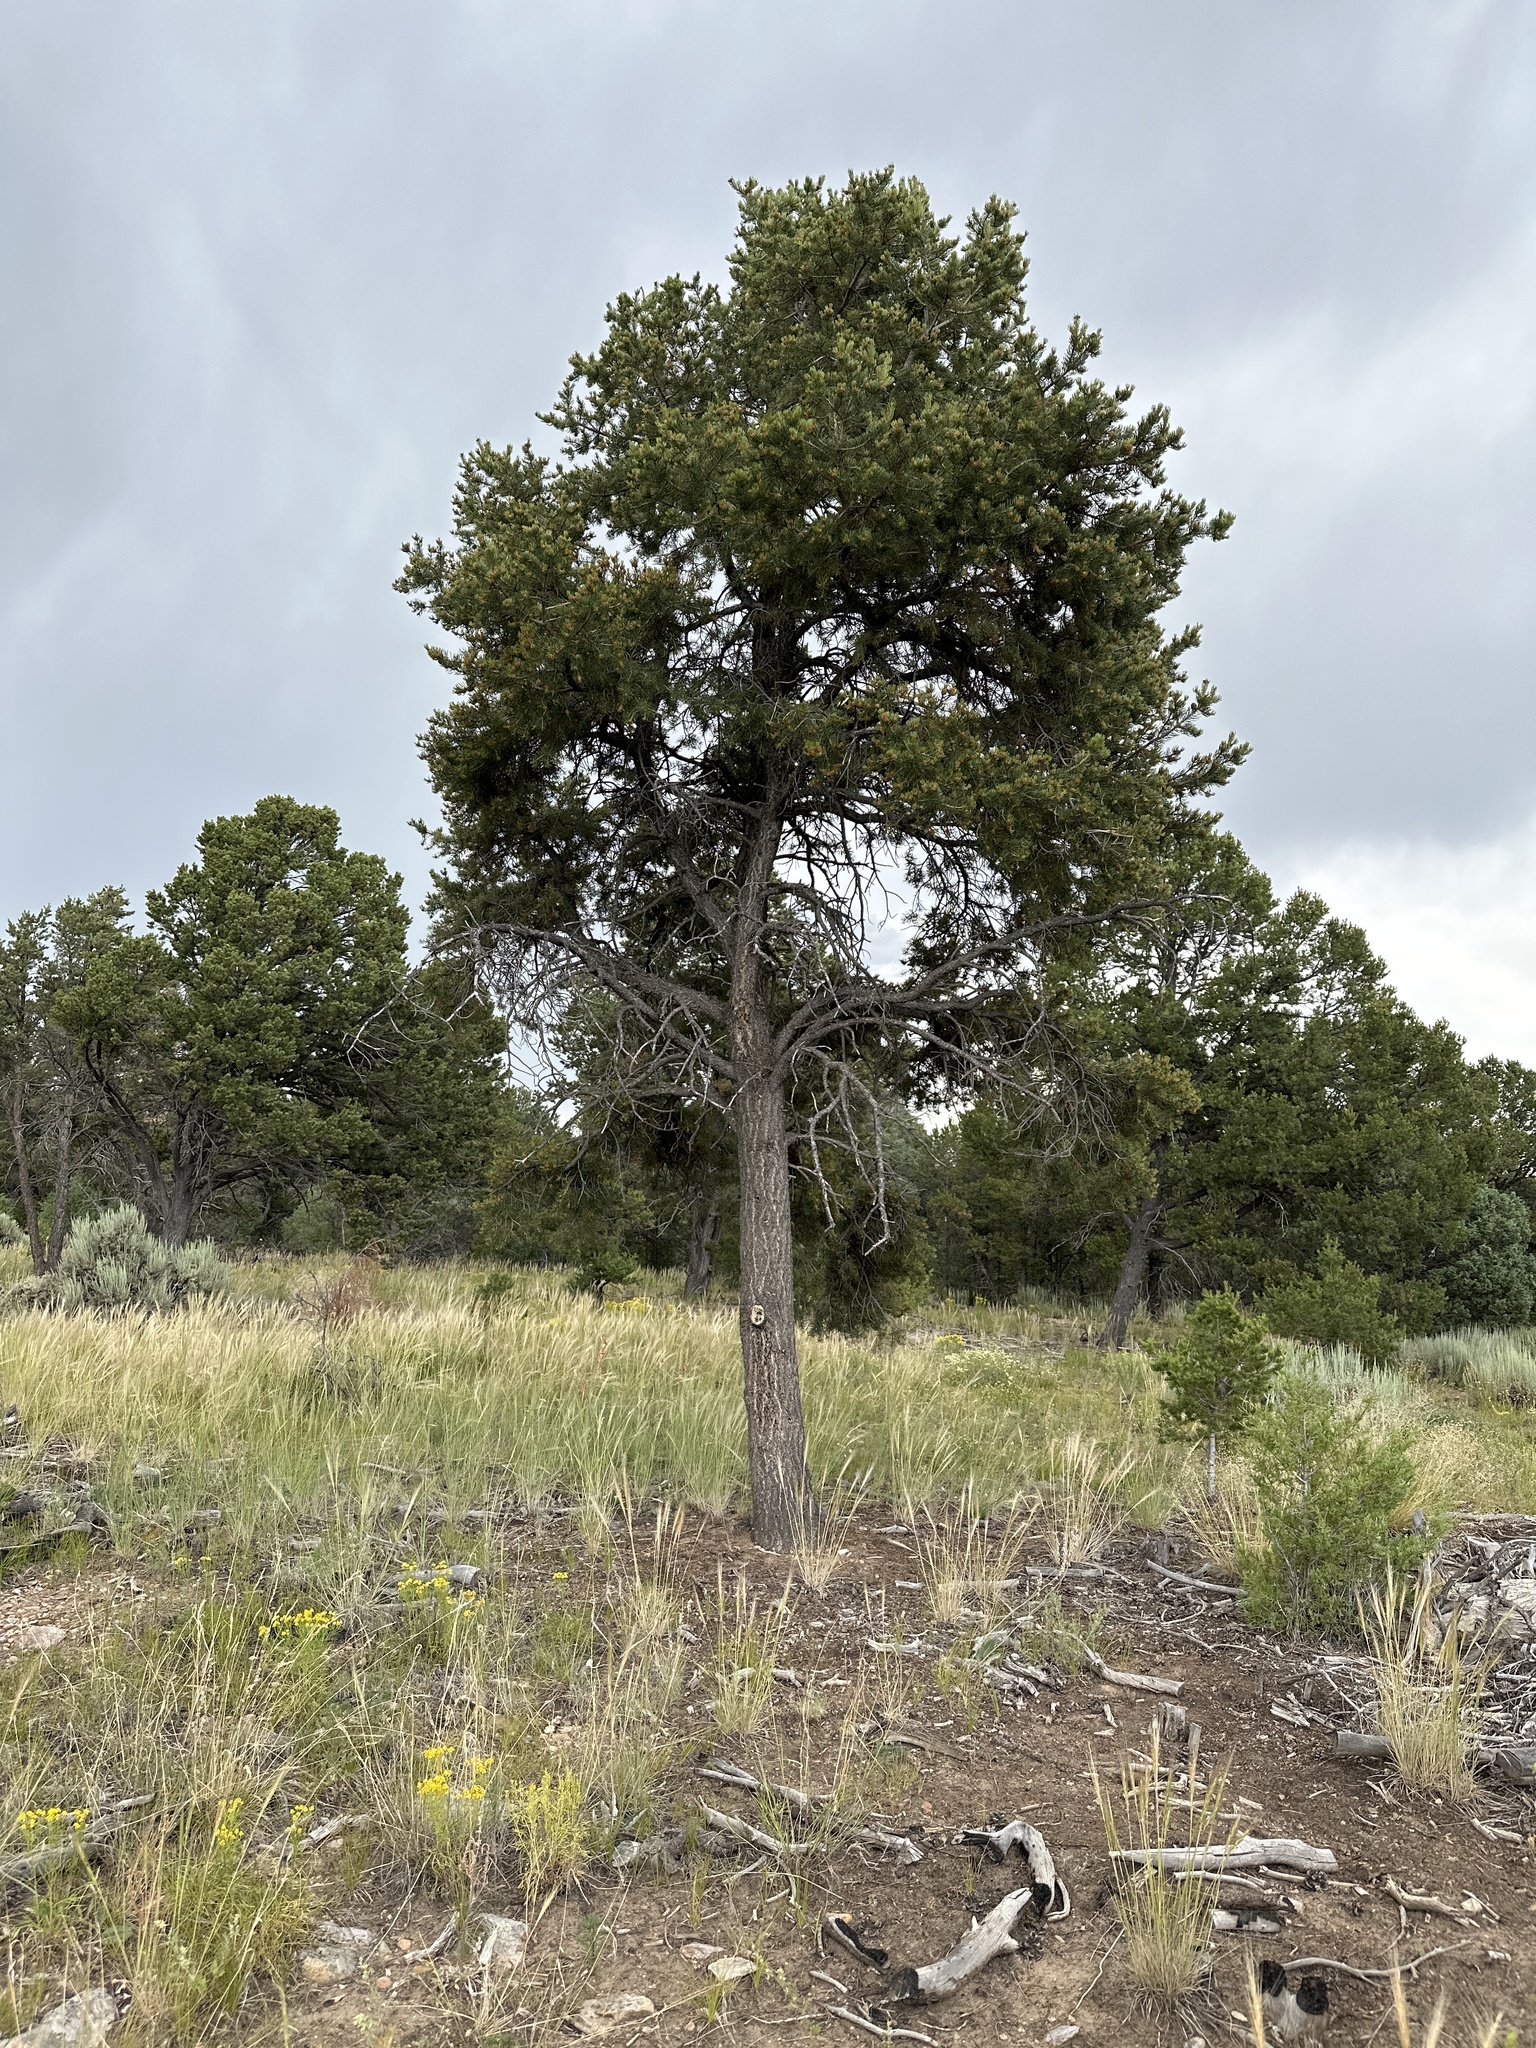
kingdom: Plantae
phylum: Tracheophyta
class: Pinopsida
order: Pinales
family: Pinaceae
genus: Pinus
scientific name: Pinus edulis
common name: Colorado pinyon
